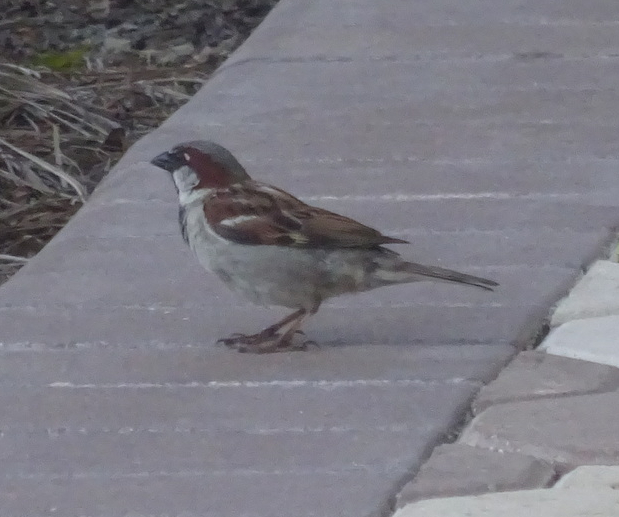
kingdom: Animalia
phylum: Chordata
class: Aves
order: Passeriformes
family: Passeridae
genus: Passer
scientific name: Passer domesticus
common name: House sparrow
